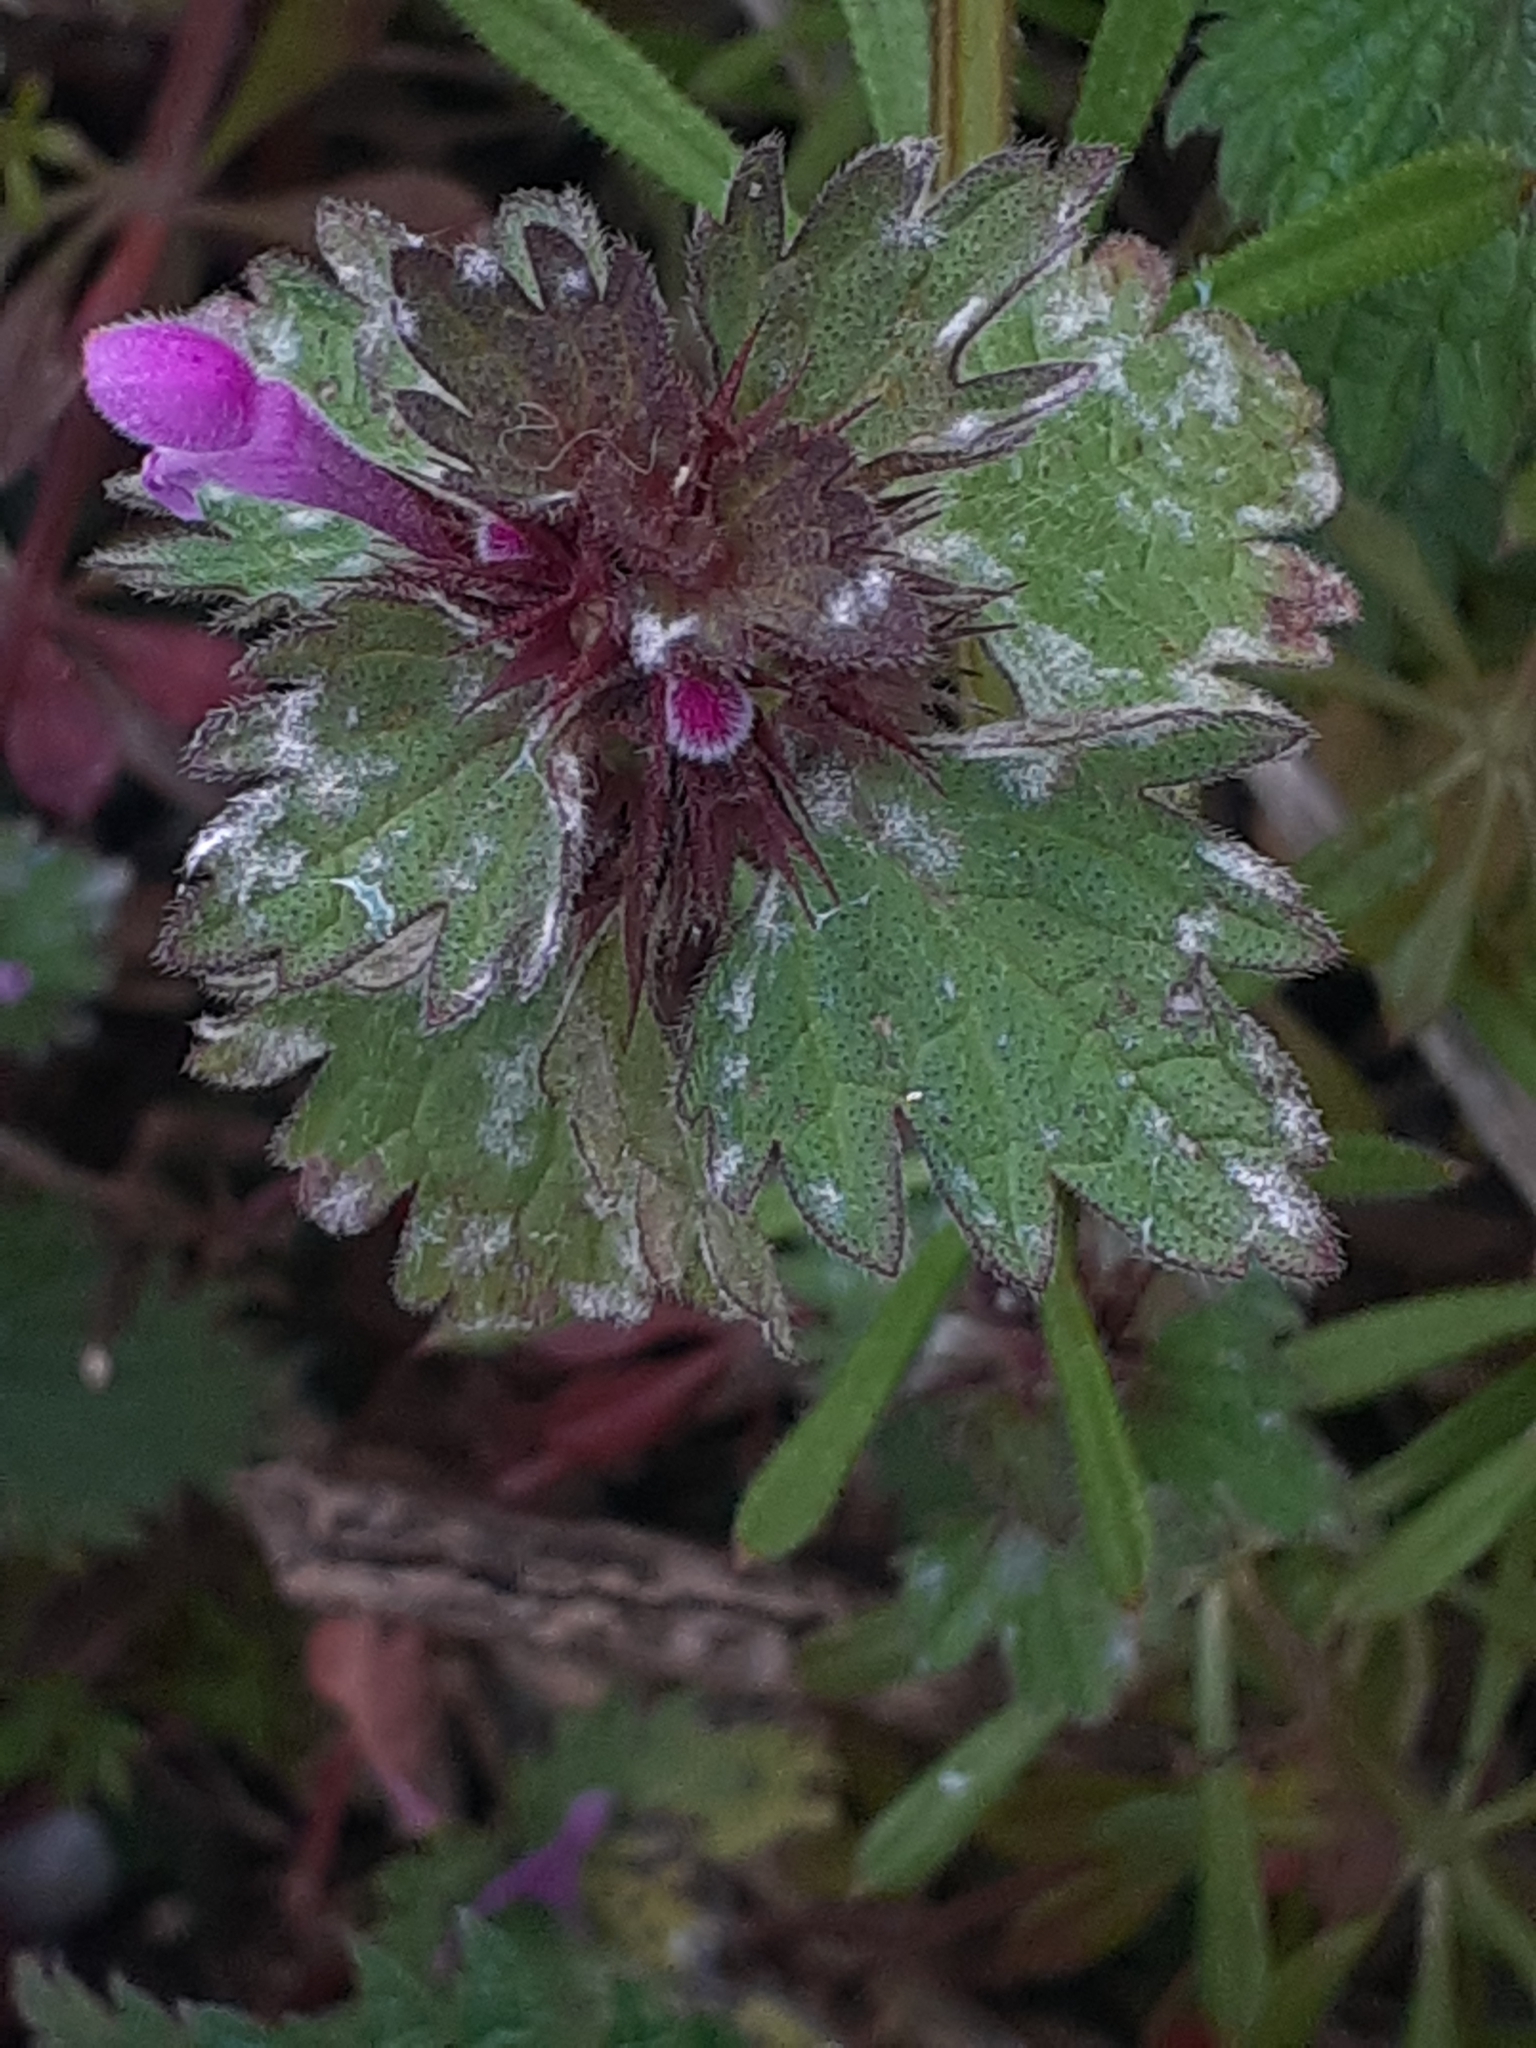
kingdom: Plantae
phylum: Tracheophyta
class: Magnoliopsida
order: Lamiales
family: Lamiaceae
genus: Lamium
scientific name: Lamium hybridum
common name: Cut-leaved dead-nettle
